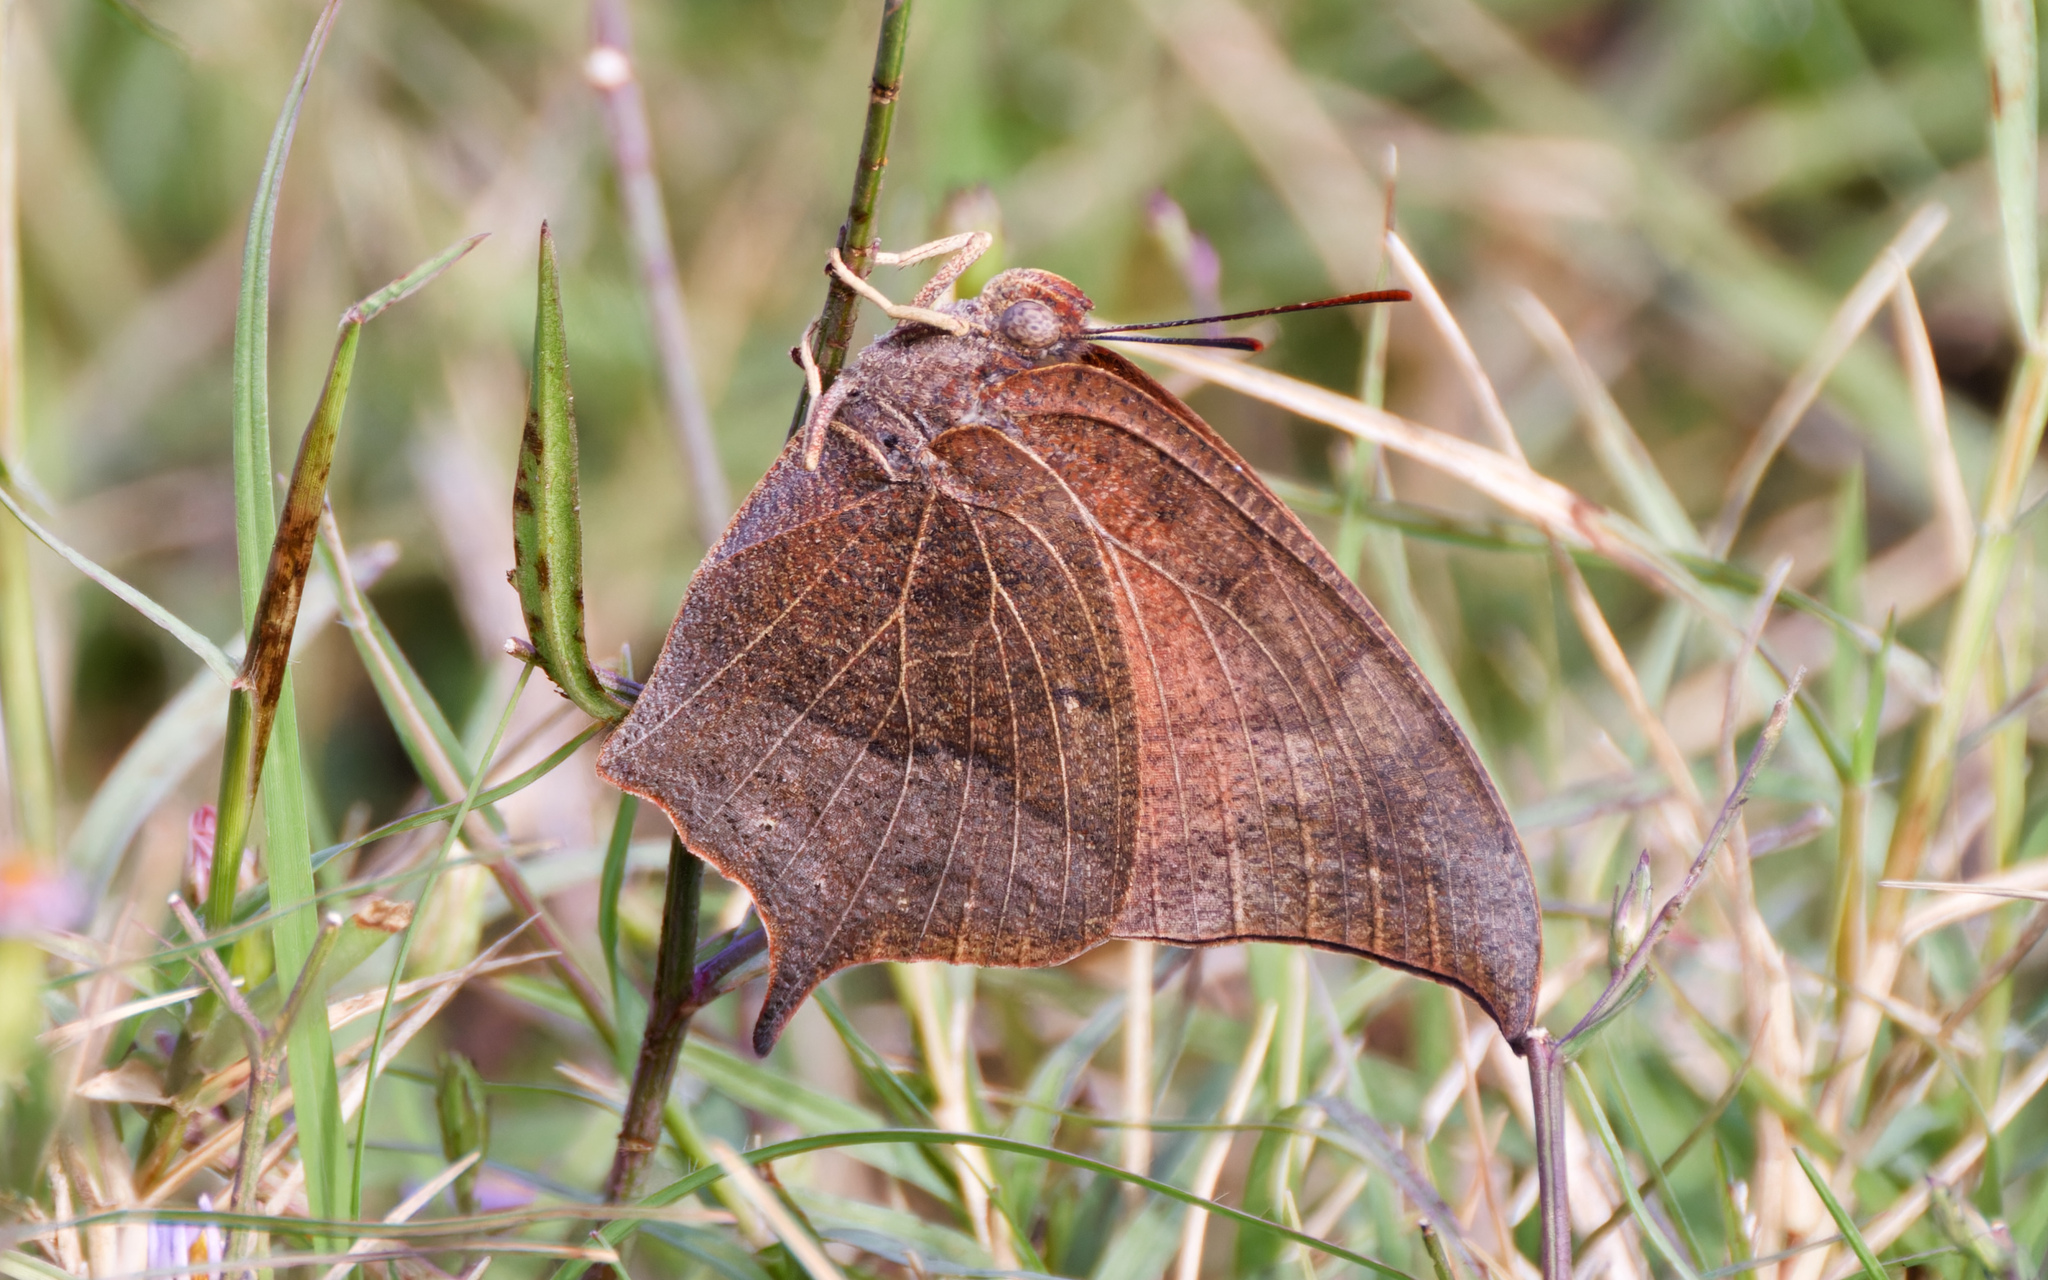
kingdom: Animalia
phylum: Arthropoda
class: Insecta
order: Lepidoptera
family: Nymphalidae
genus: Anaea
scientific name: Anaea andria
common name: Goatweed leafwing
